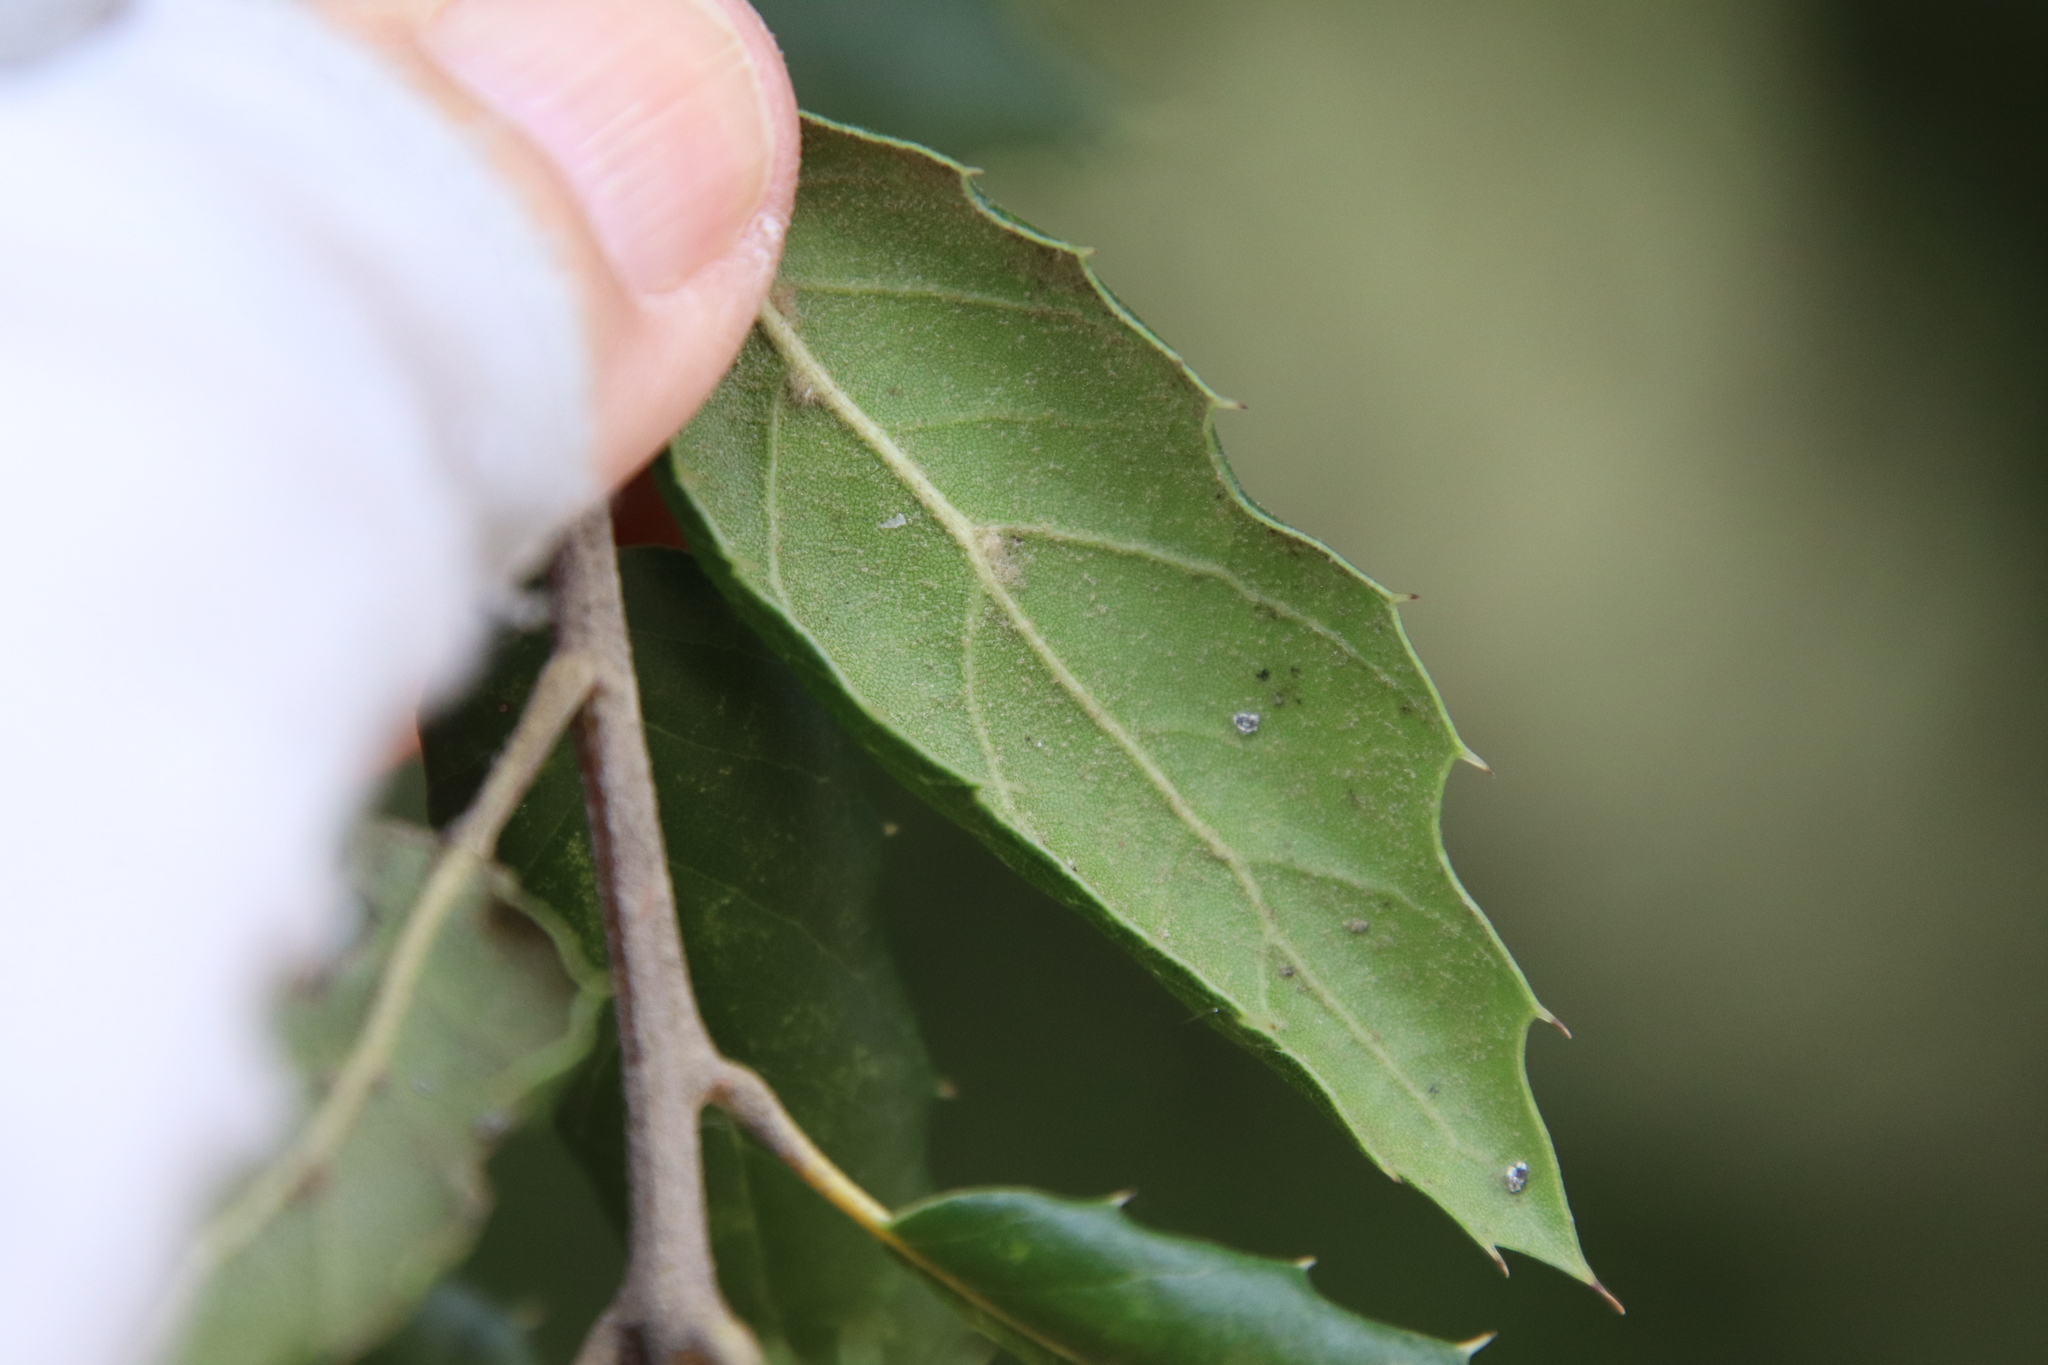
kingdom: Plantae
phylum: Tracheophyta
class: Magnoliopsida
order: Fagales
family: Fagaceae
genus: Quercus
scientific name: Quercus agrifolia
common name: California live oak
